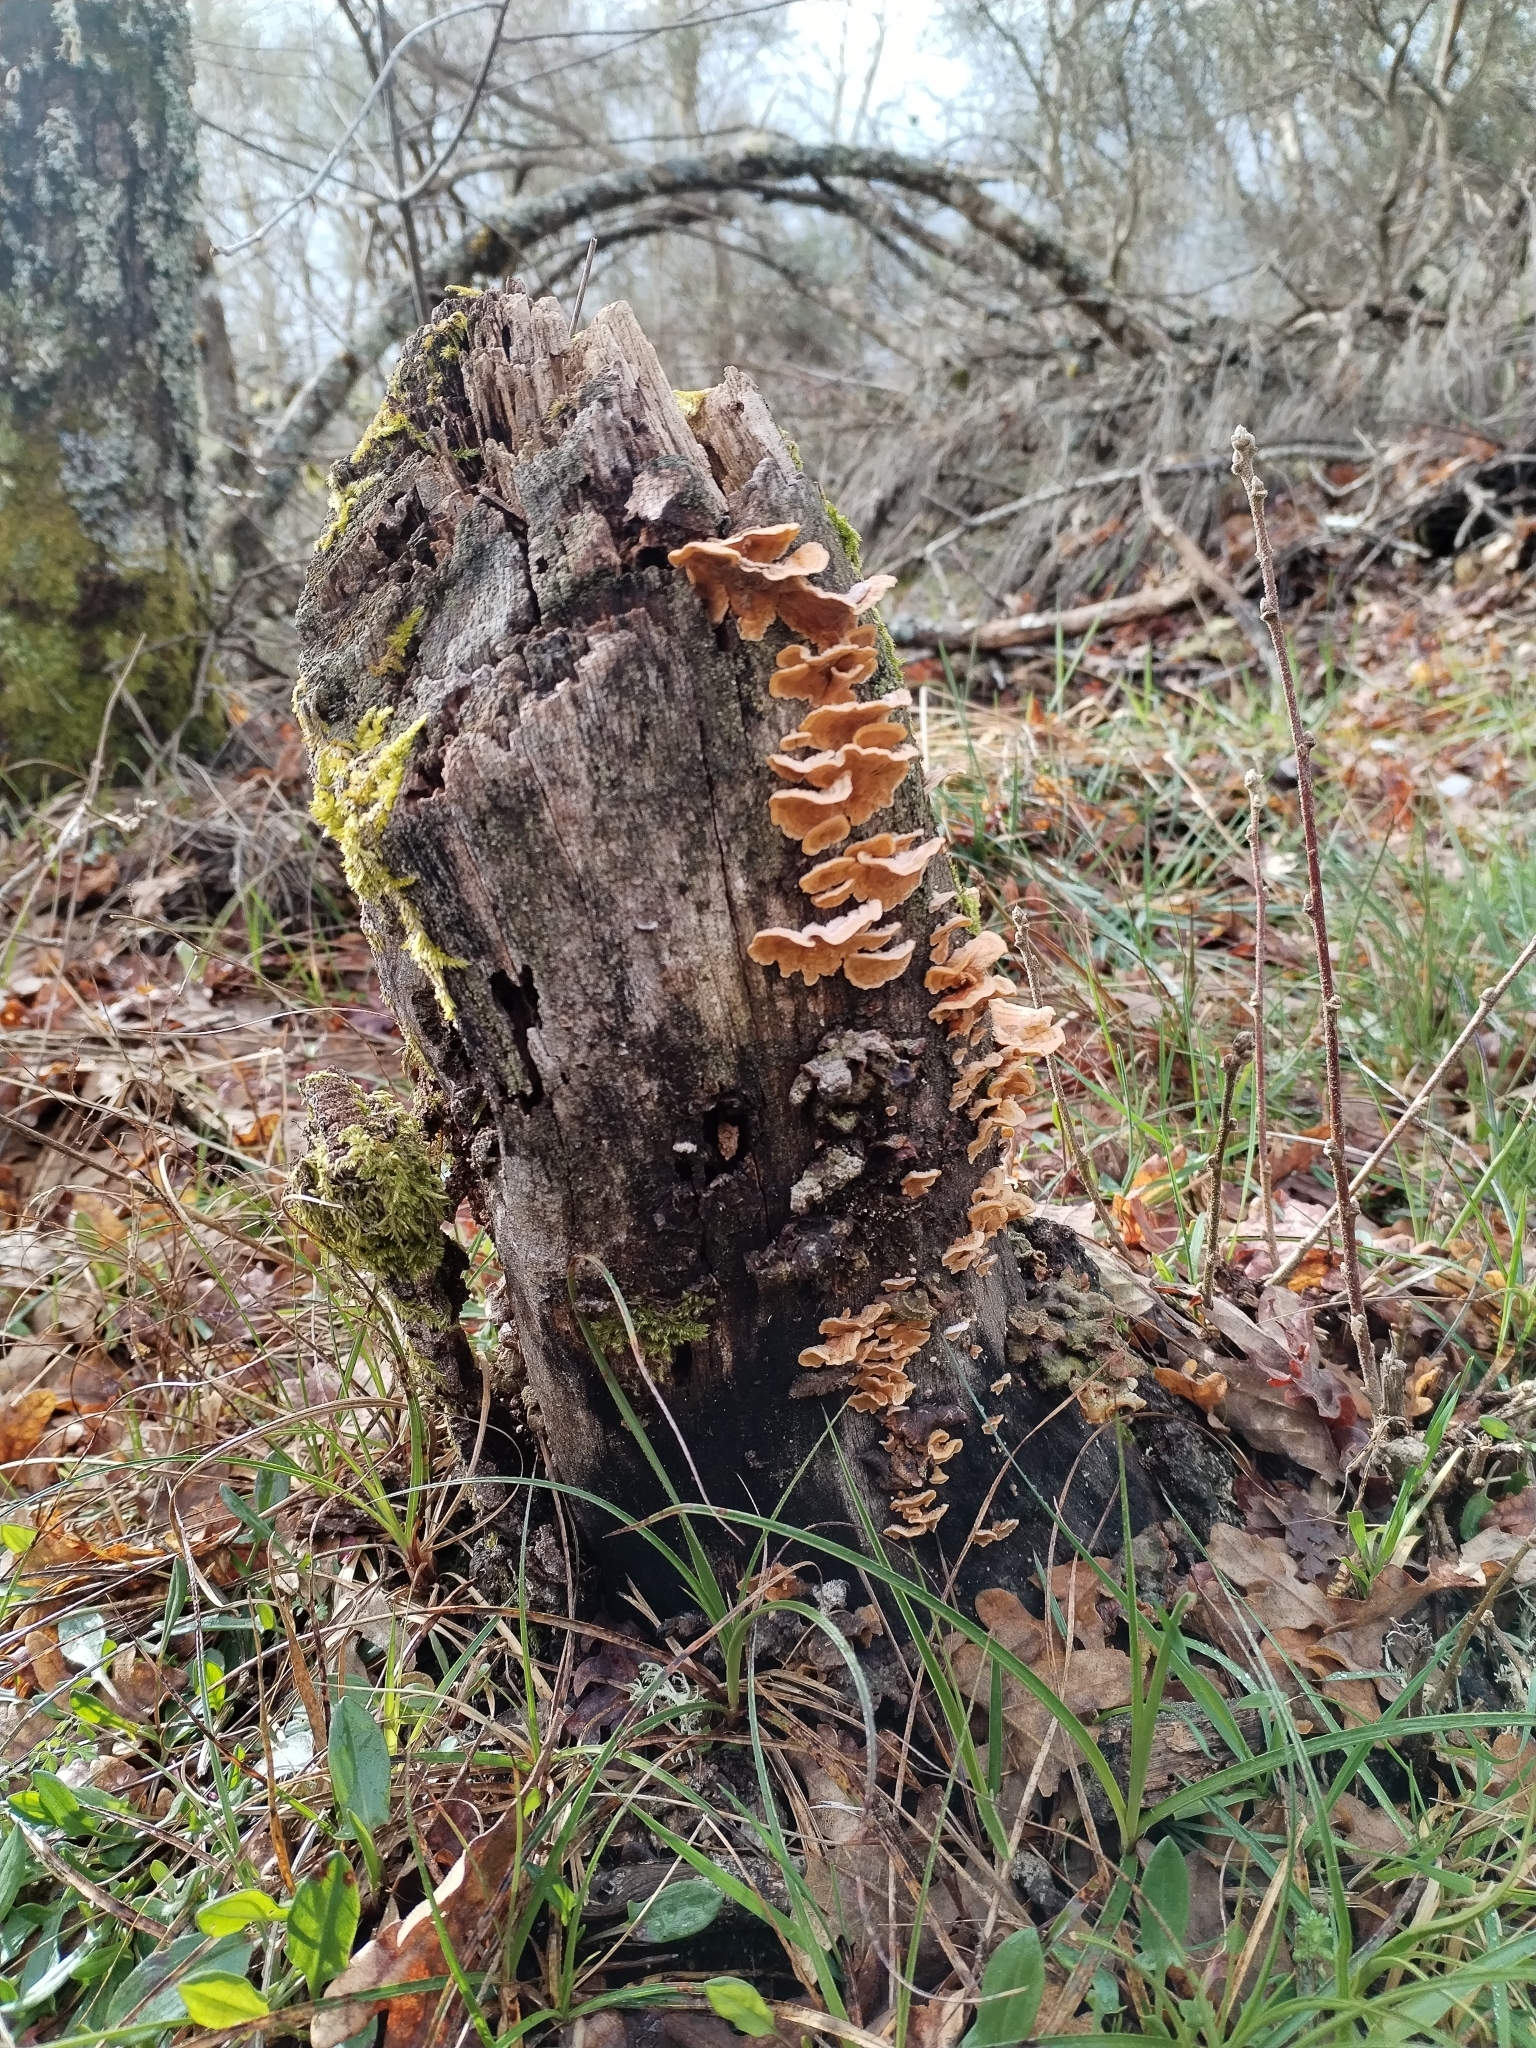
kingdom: Fungi
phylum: Basidiomycota
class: Agaricomycetes
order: Russulales
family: Stereaceae
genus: Stereum
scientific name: Stereum hirsutum
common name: Hairy curtain crust
